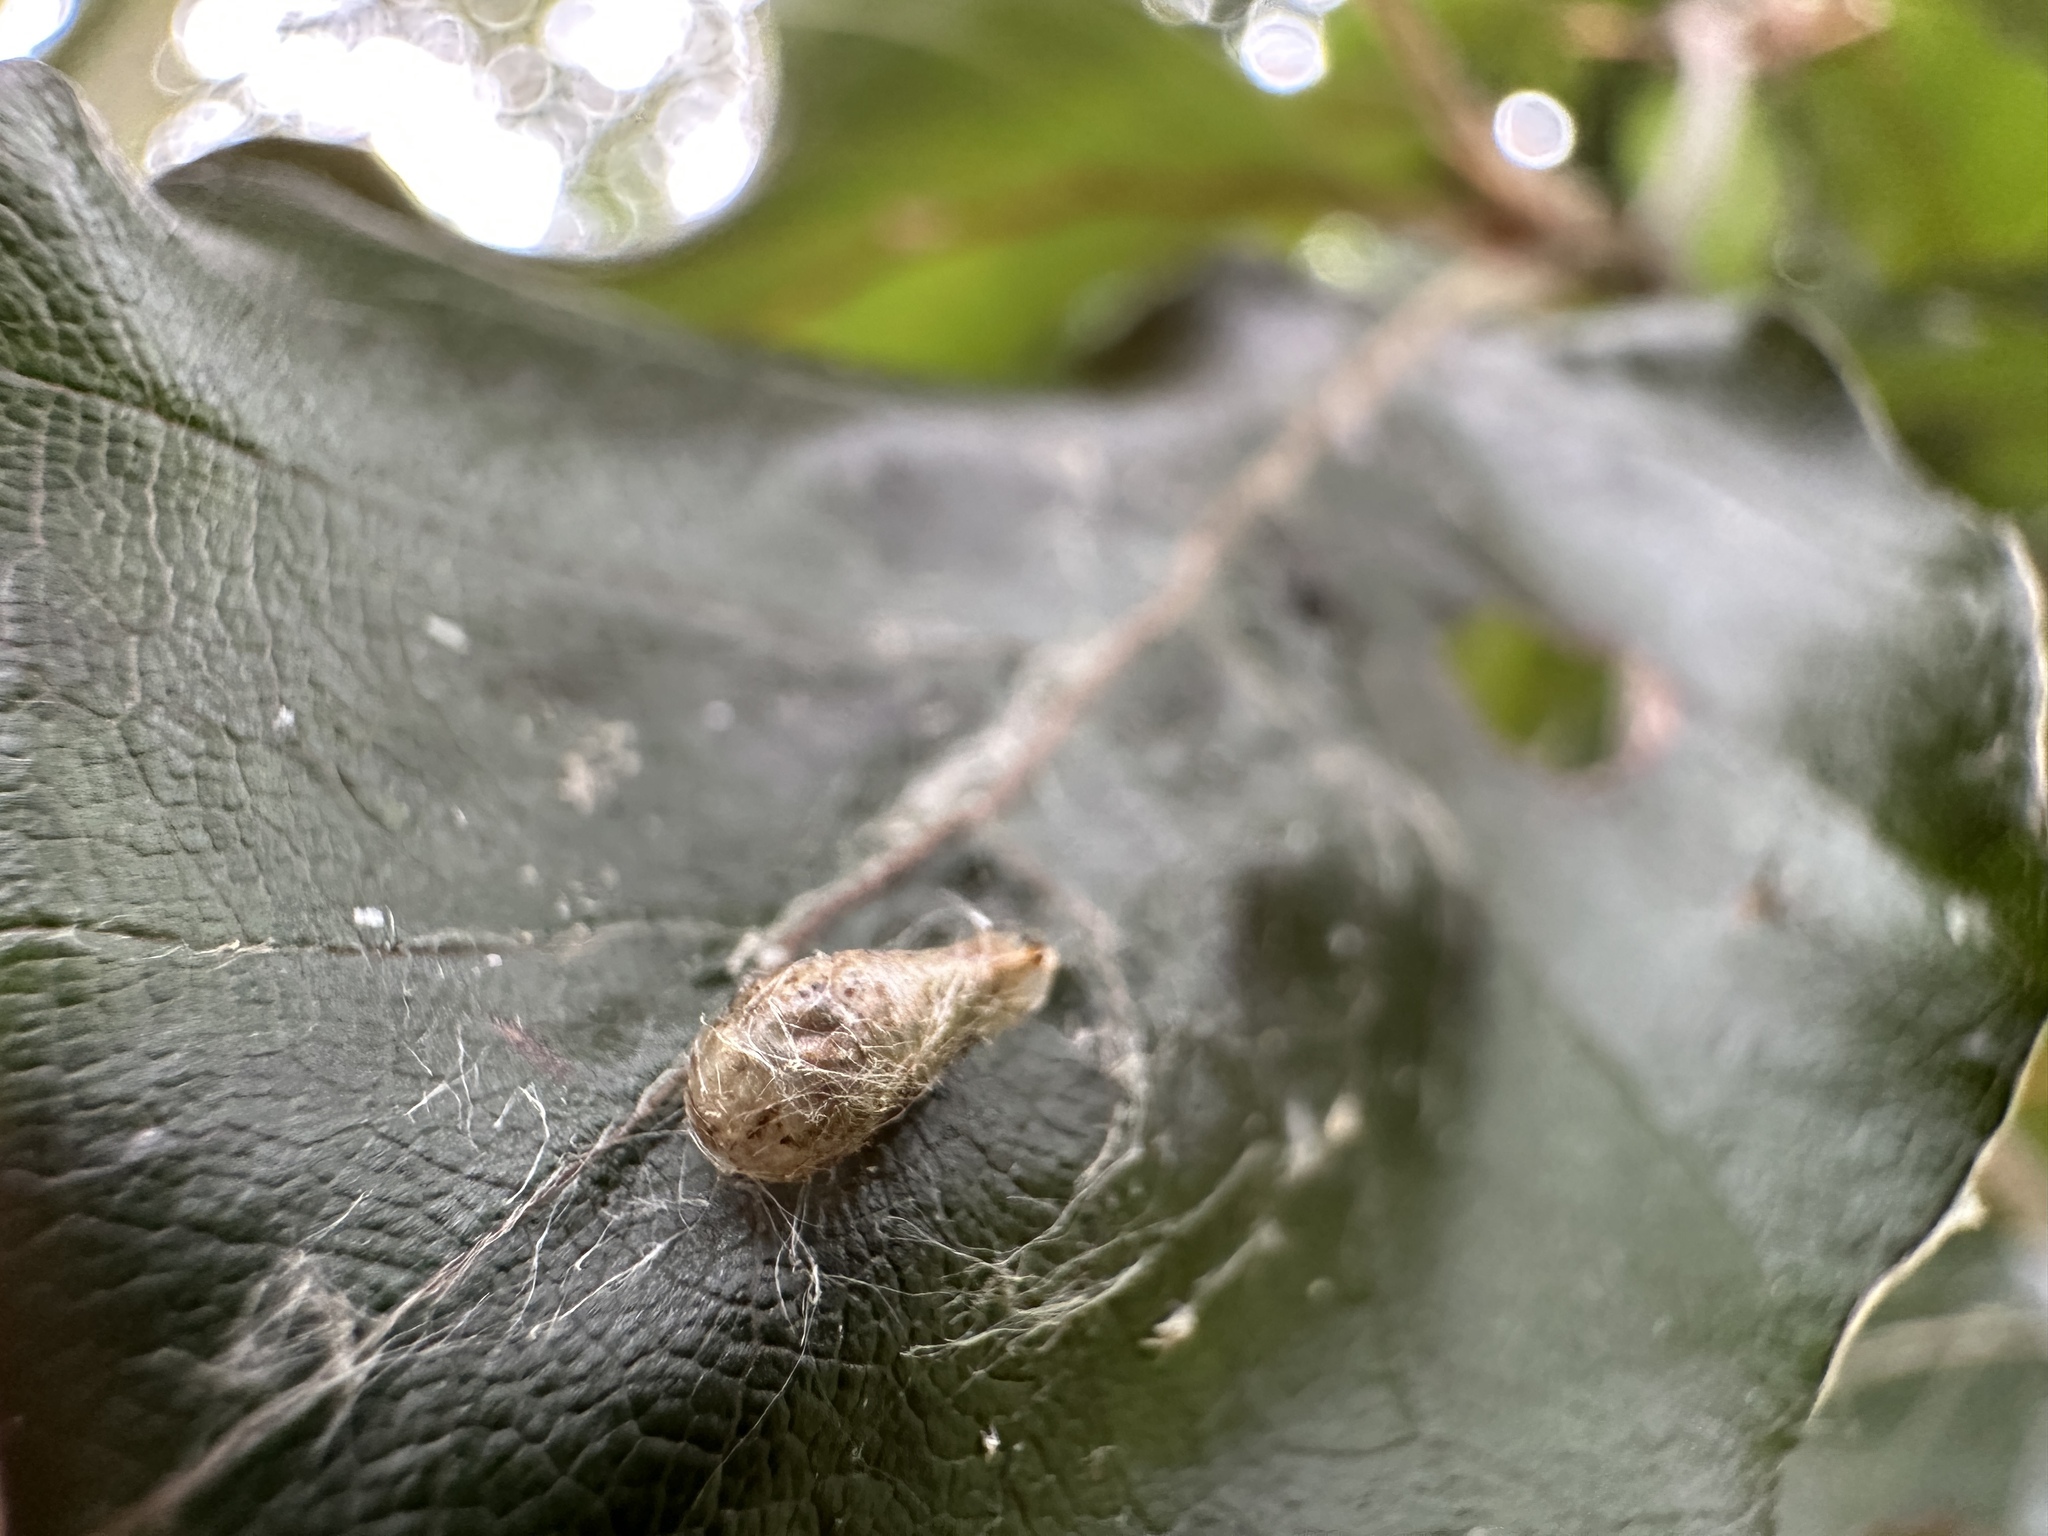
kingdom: Animalia
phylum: Arthropoda
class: Insecta
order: Diptera
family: Syrphidae
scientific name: Syrphidae
